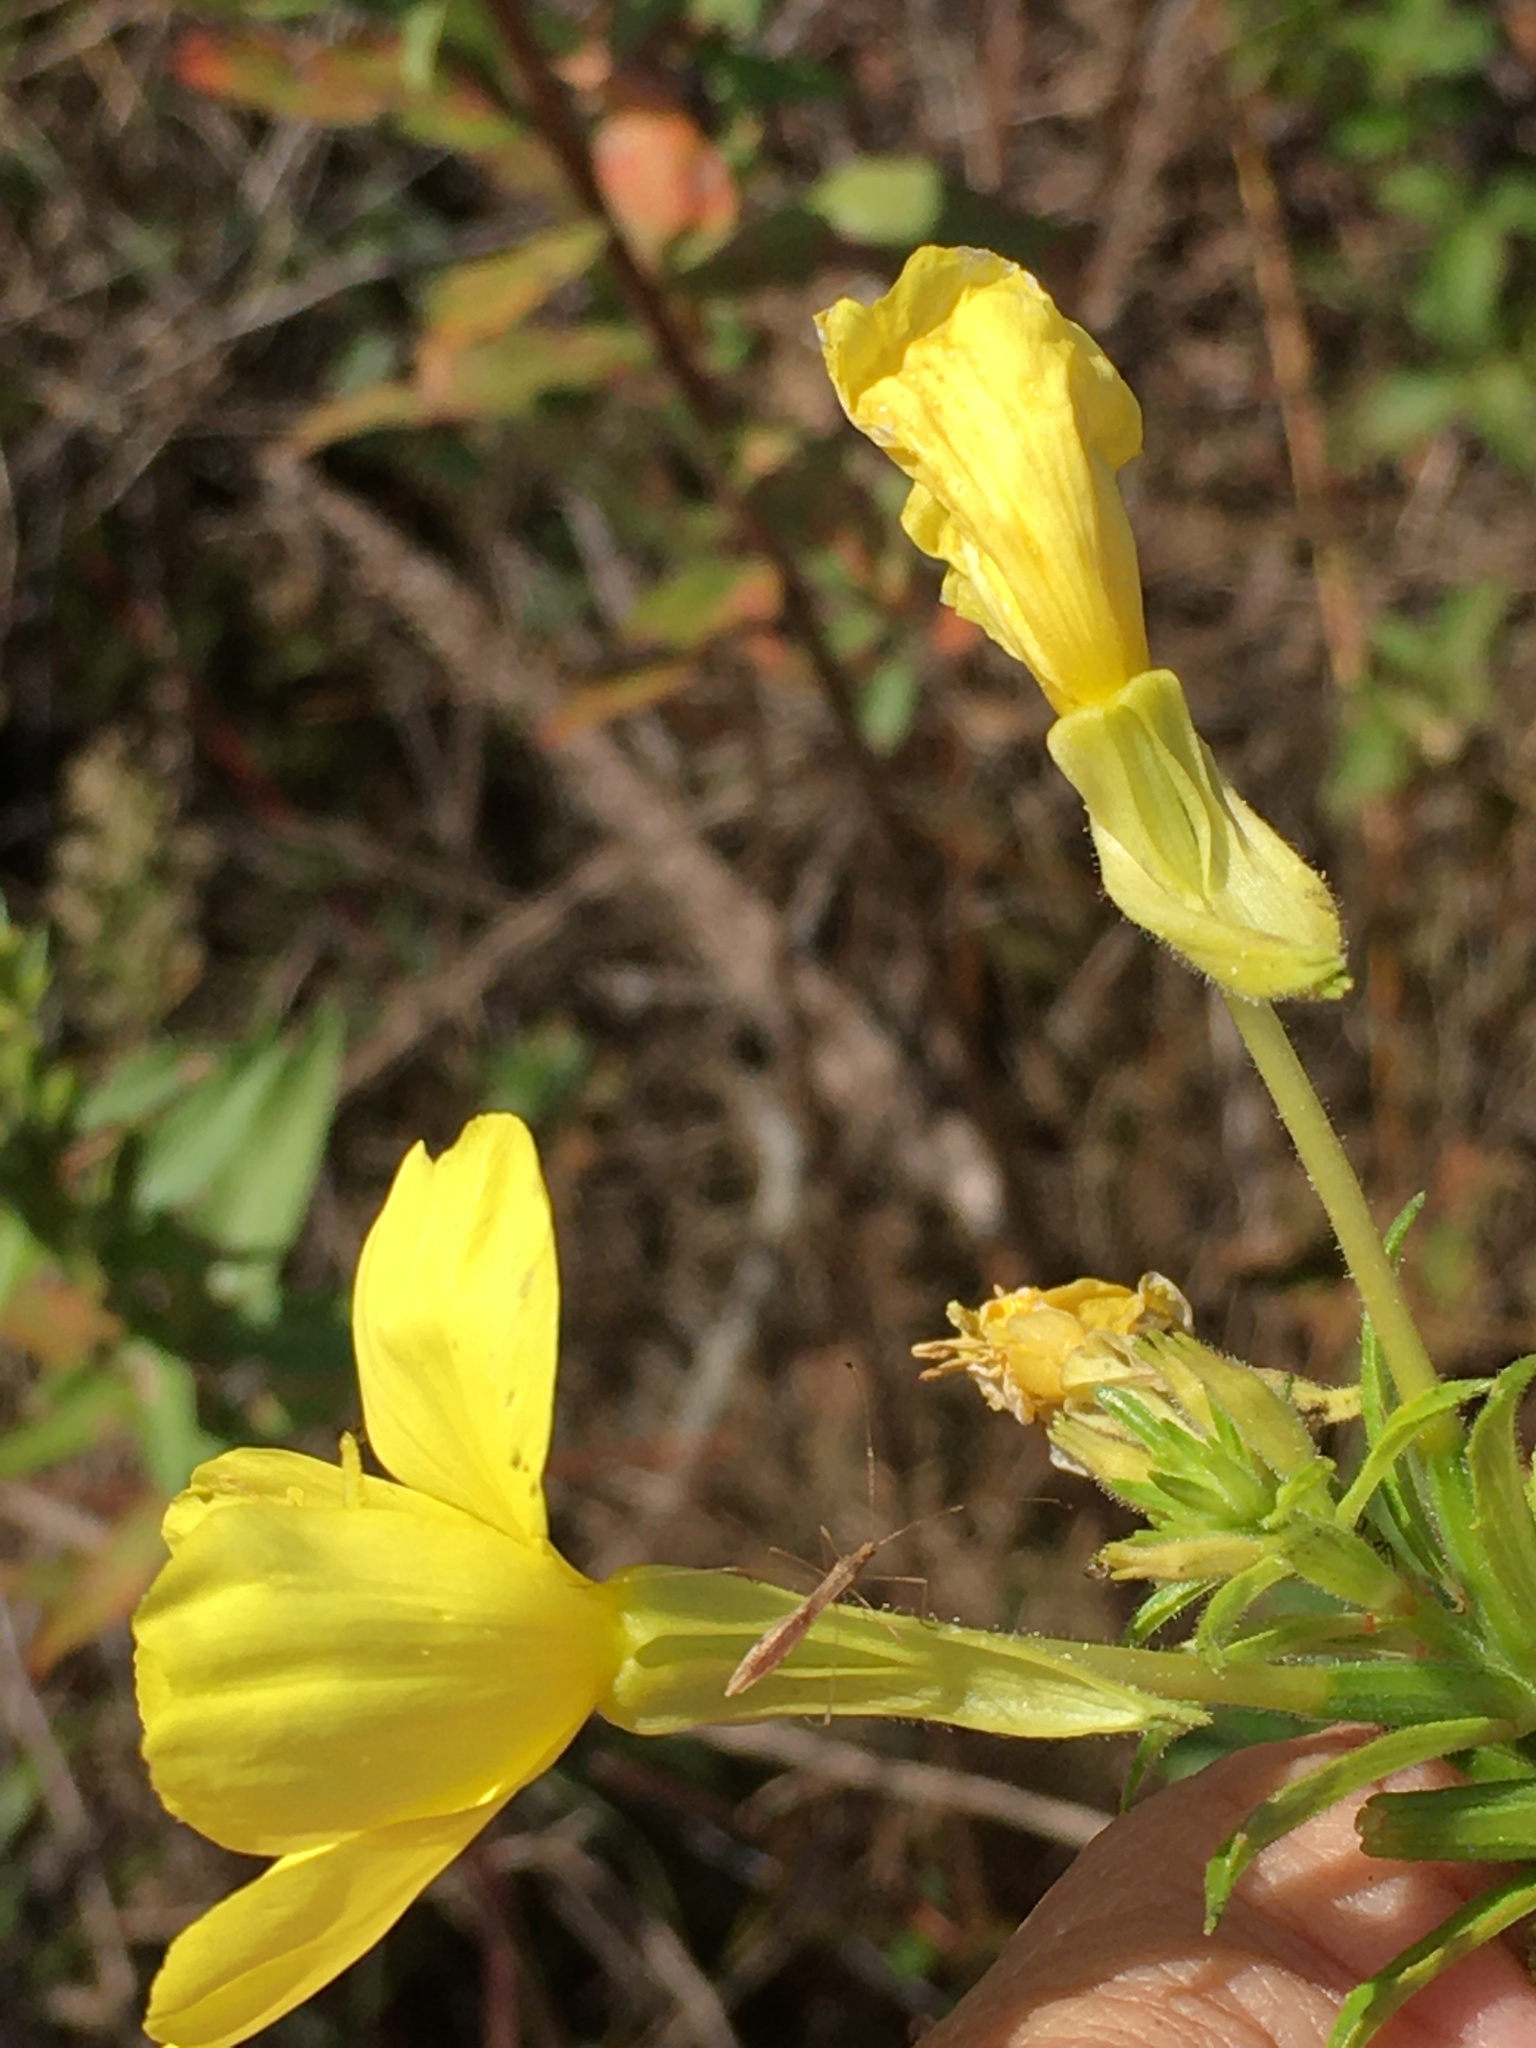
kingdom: Plantae
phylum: Tracheophyta
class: Magnoliopsida
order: Myrtales
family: Onagraceae
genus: Oenothera
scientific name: Oenothera biennis
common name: Common evening-primrose
